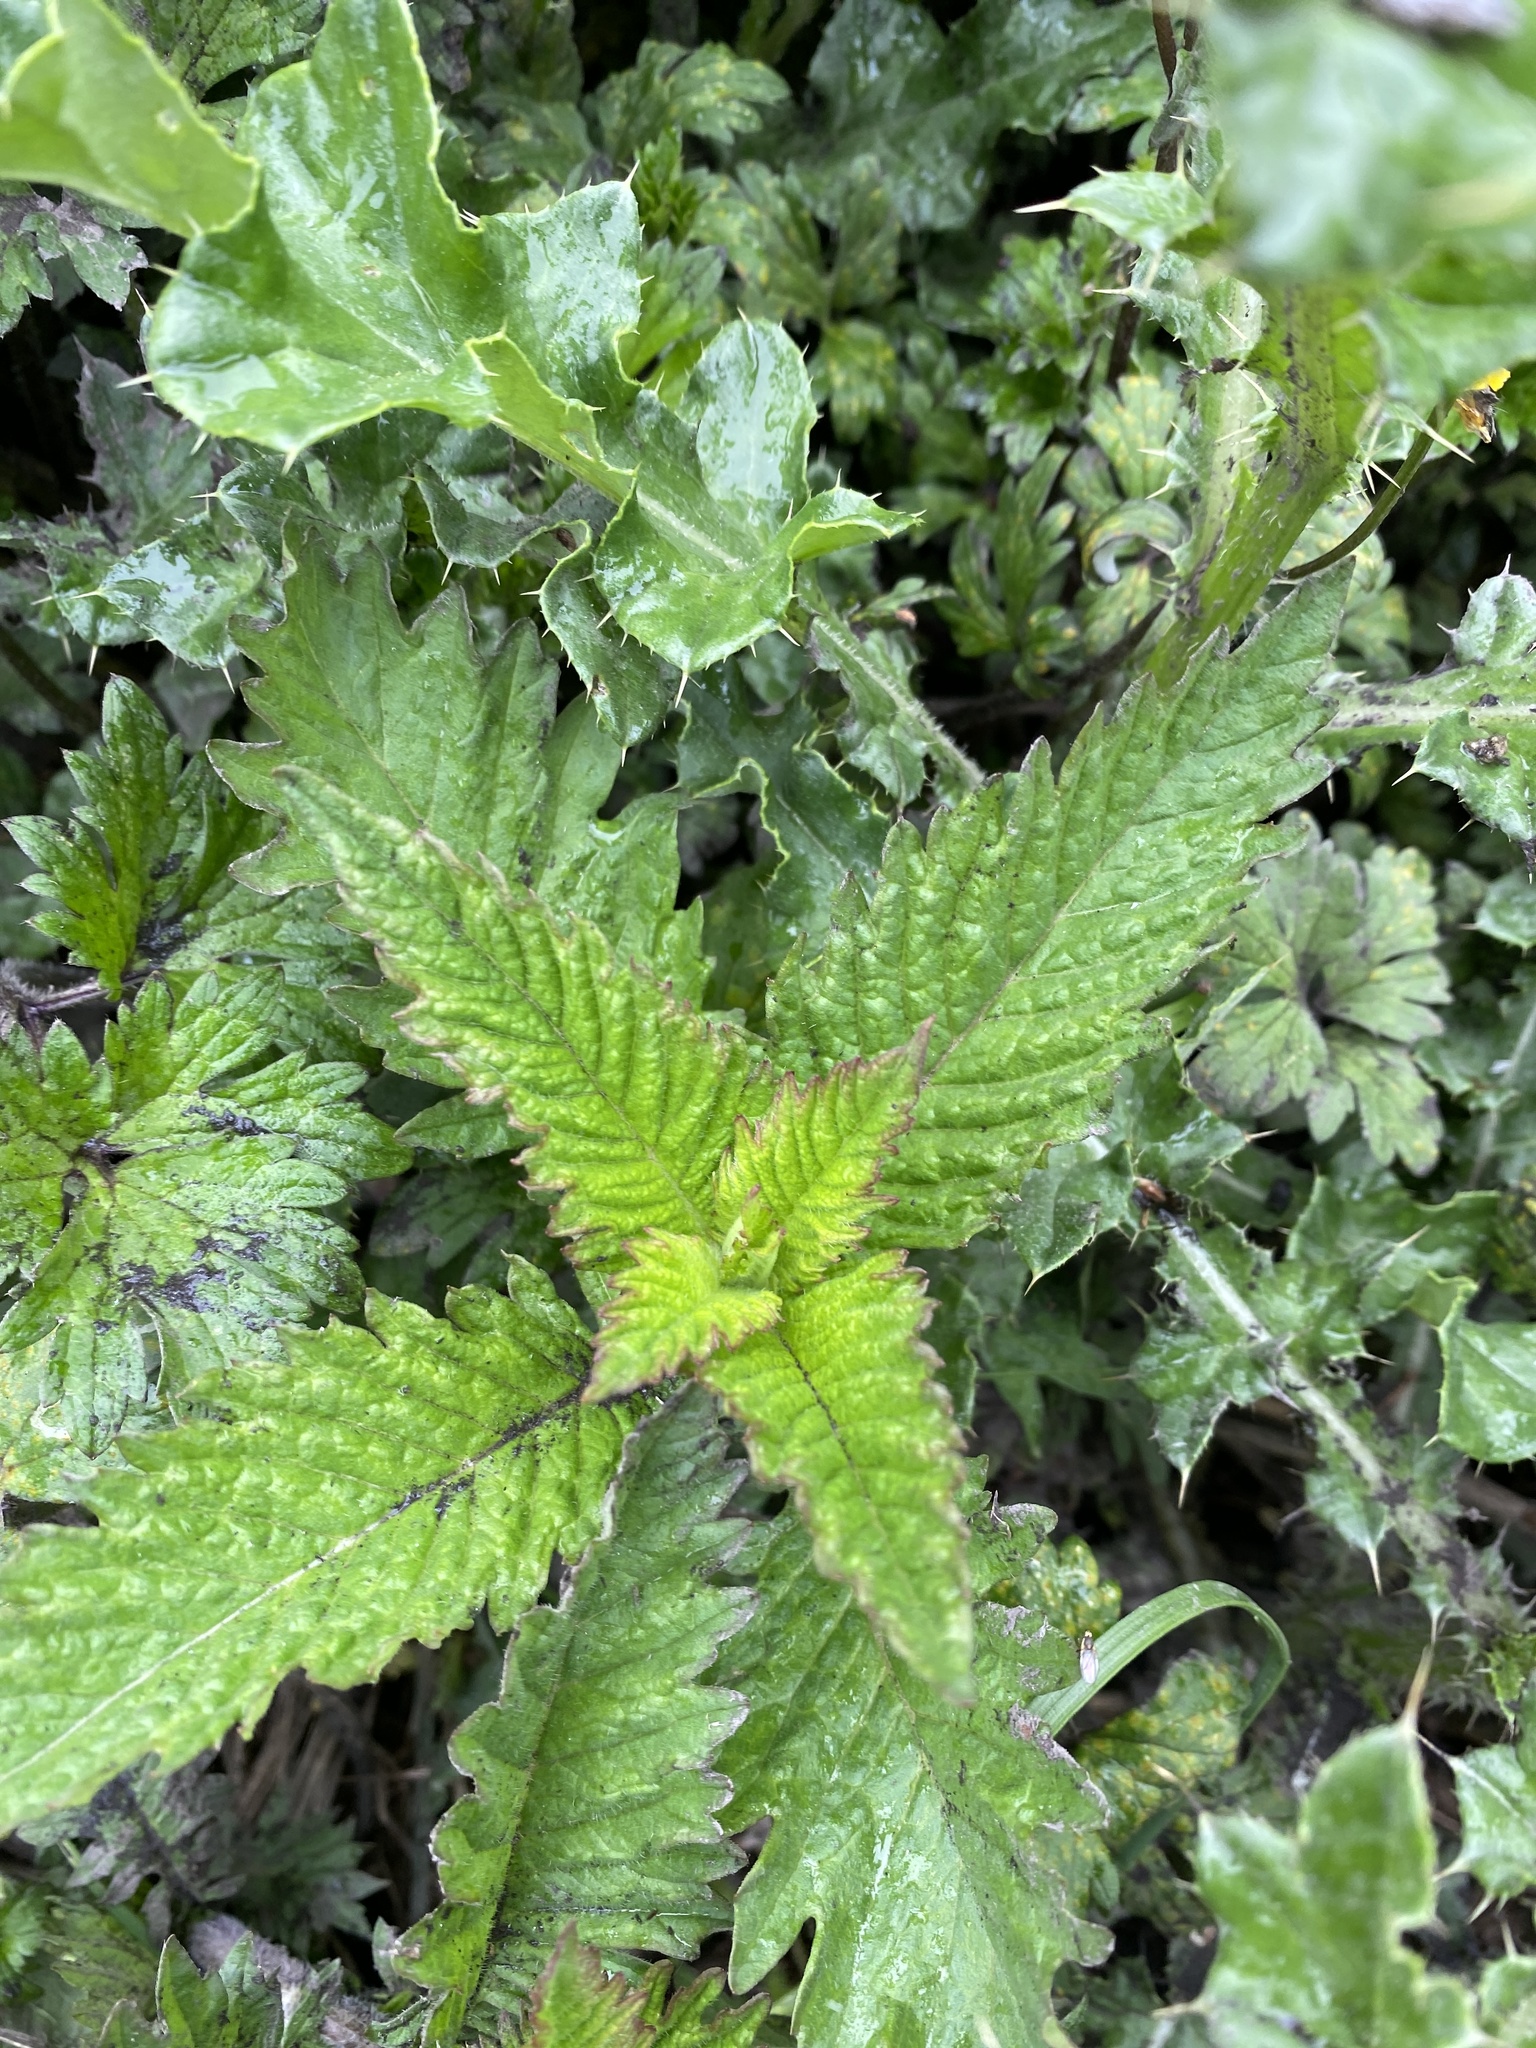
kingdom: Plantae
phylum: Tracheophyta
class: Magnoliopsida
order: Lamiales
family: Lamiaceae
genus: Lycopus
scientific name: Lycopus europaeus
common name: European bugleweed
